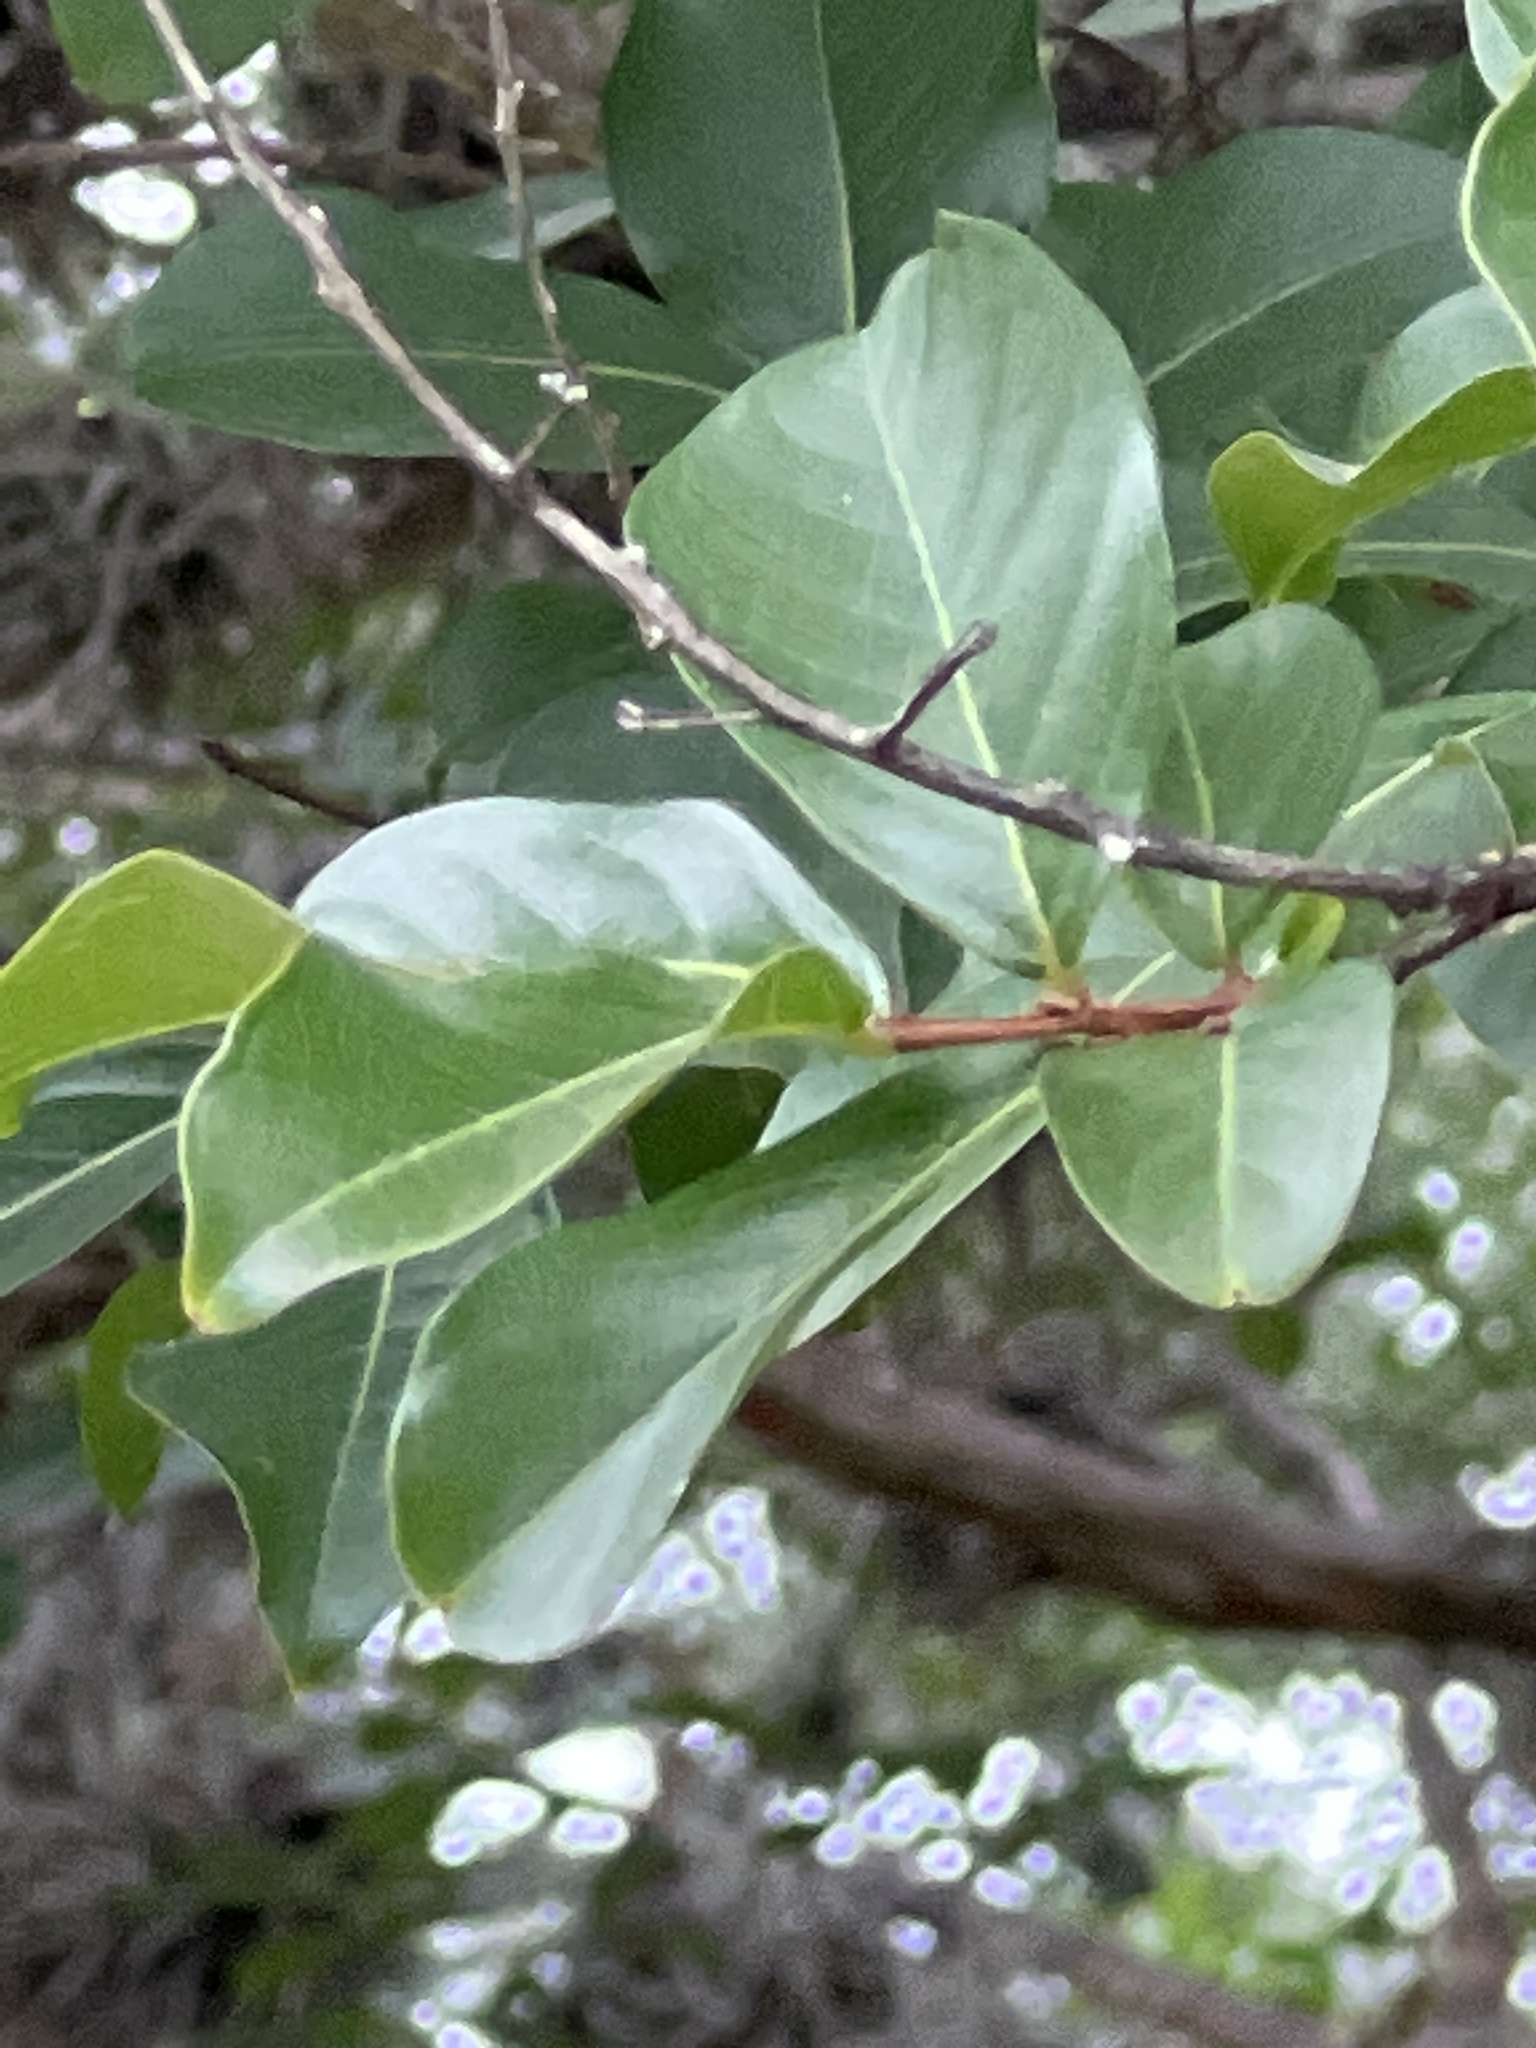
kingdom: Plantae
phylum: Tracheophyta
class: Magnoliopsida
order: Lamiales
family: Oleaceae
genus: Ligustrum
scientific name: Ligustrum lucidum
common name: Glossy privet
